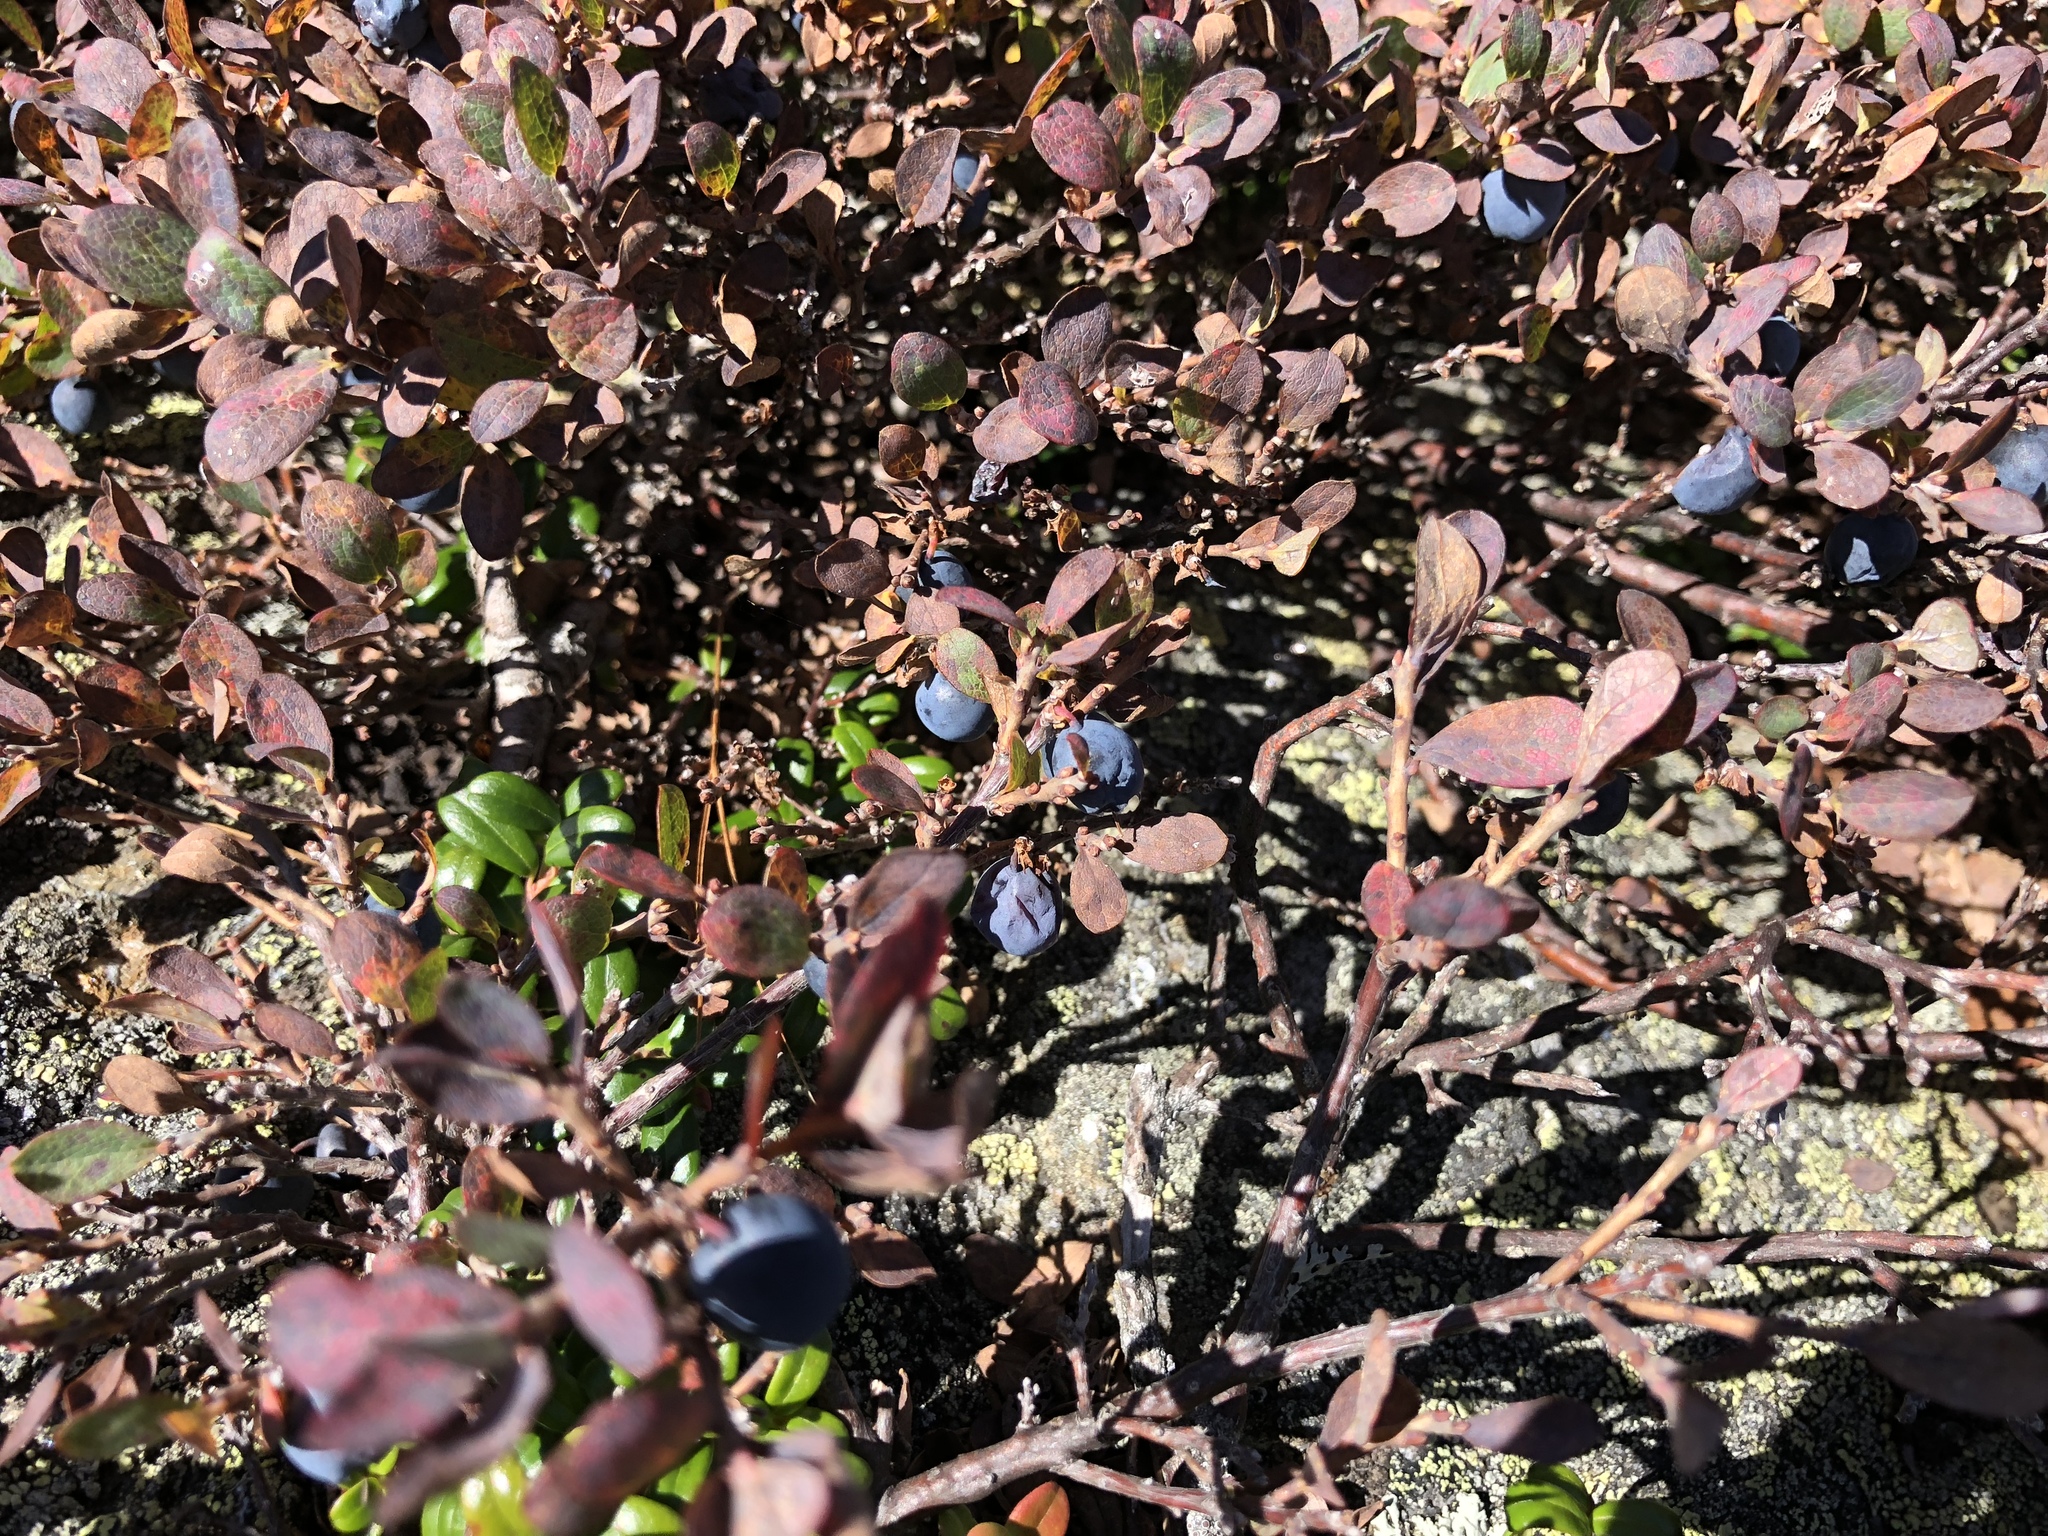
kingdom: Plantae
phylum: Tracheophyta
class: Magnoliopsida
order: Ericales
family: Ericaceae
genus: Vaccinium
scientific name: Vaccinium uliginosum
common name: Bog bilberry
